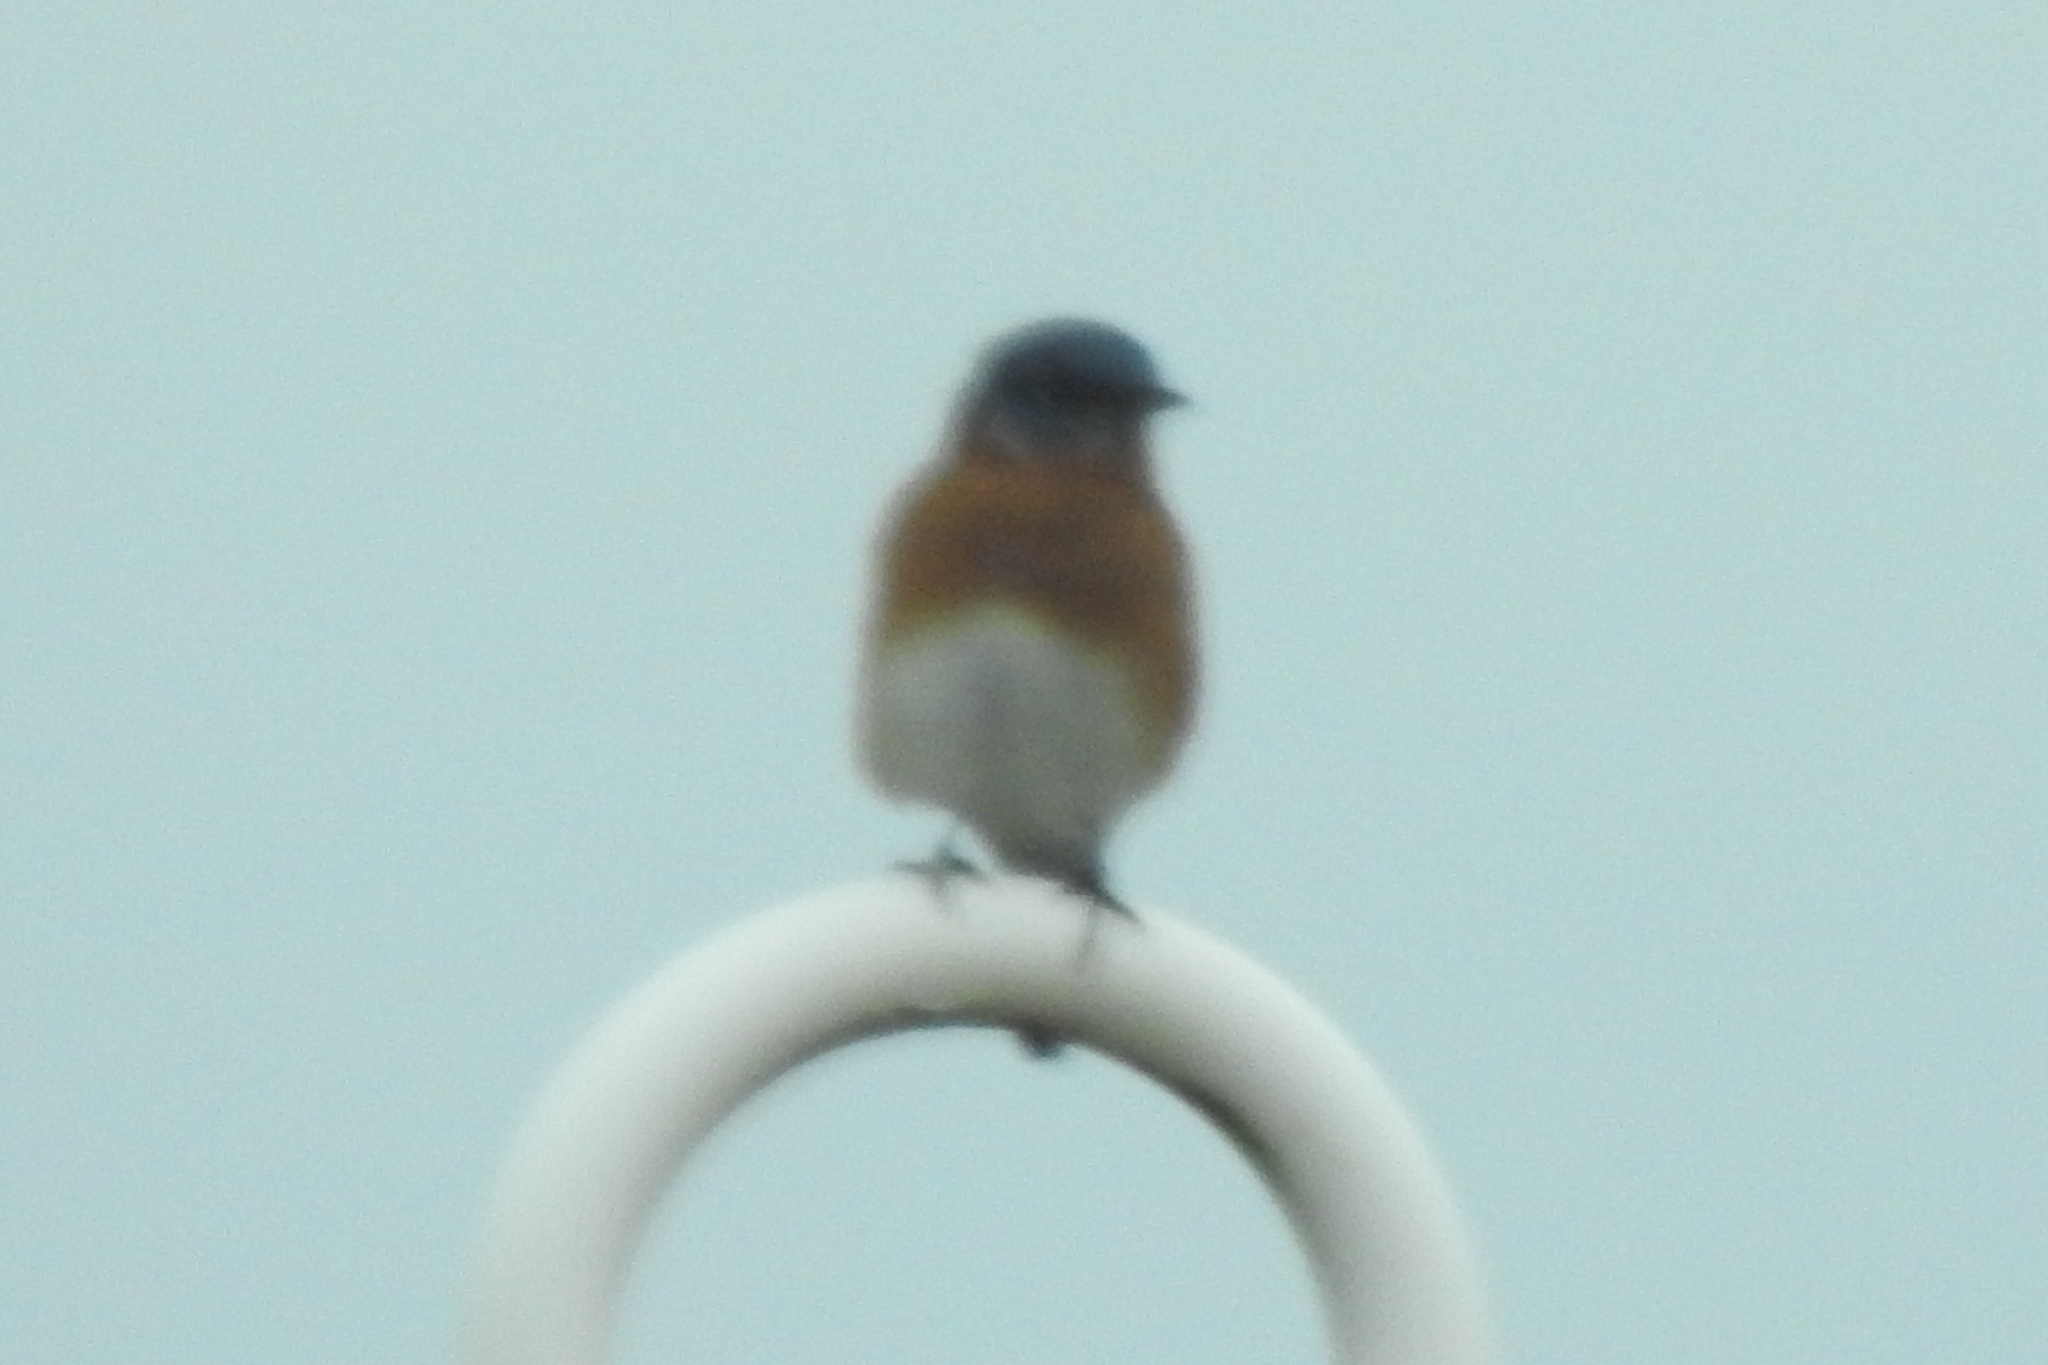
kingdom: Animalia
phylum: Chordata
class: Aves
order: Passeriformes
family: Turdidae
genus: Sialia
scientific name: Sialia sialis
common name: Eastern bluebird
